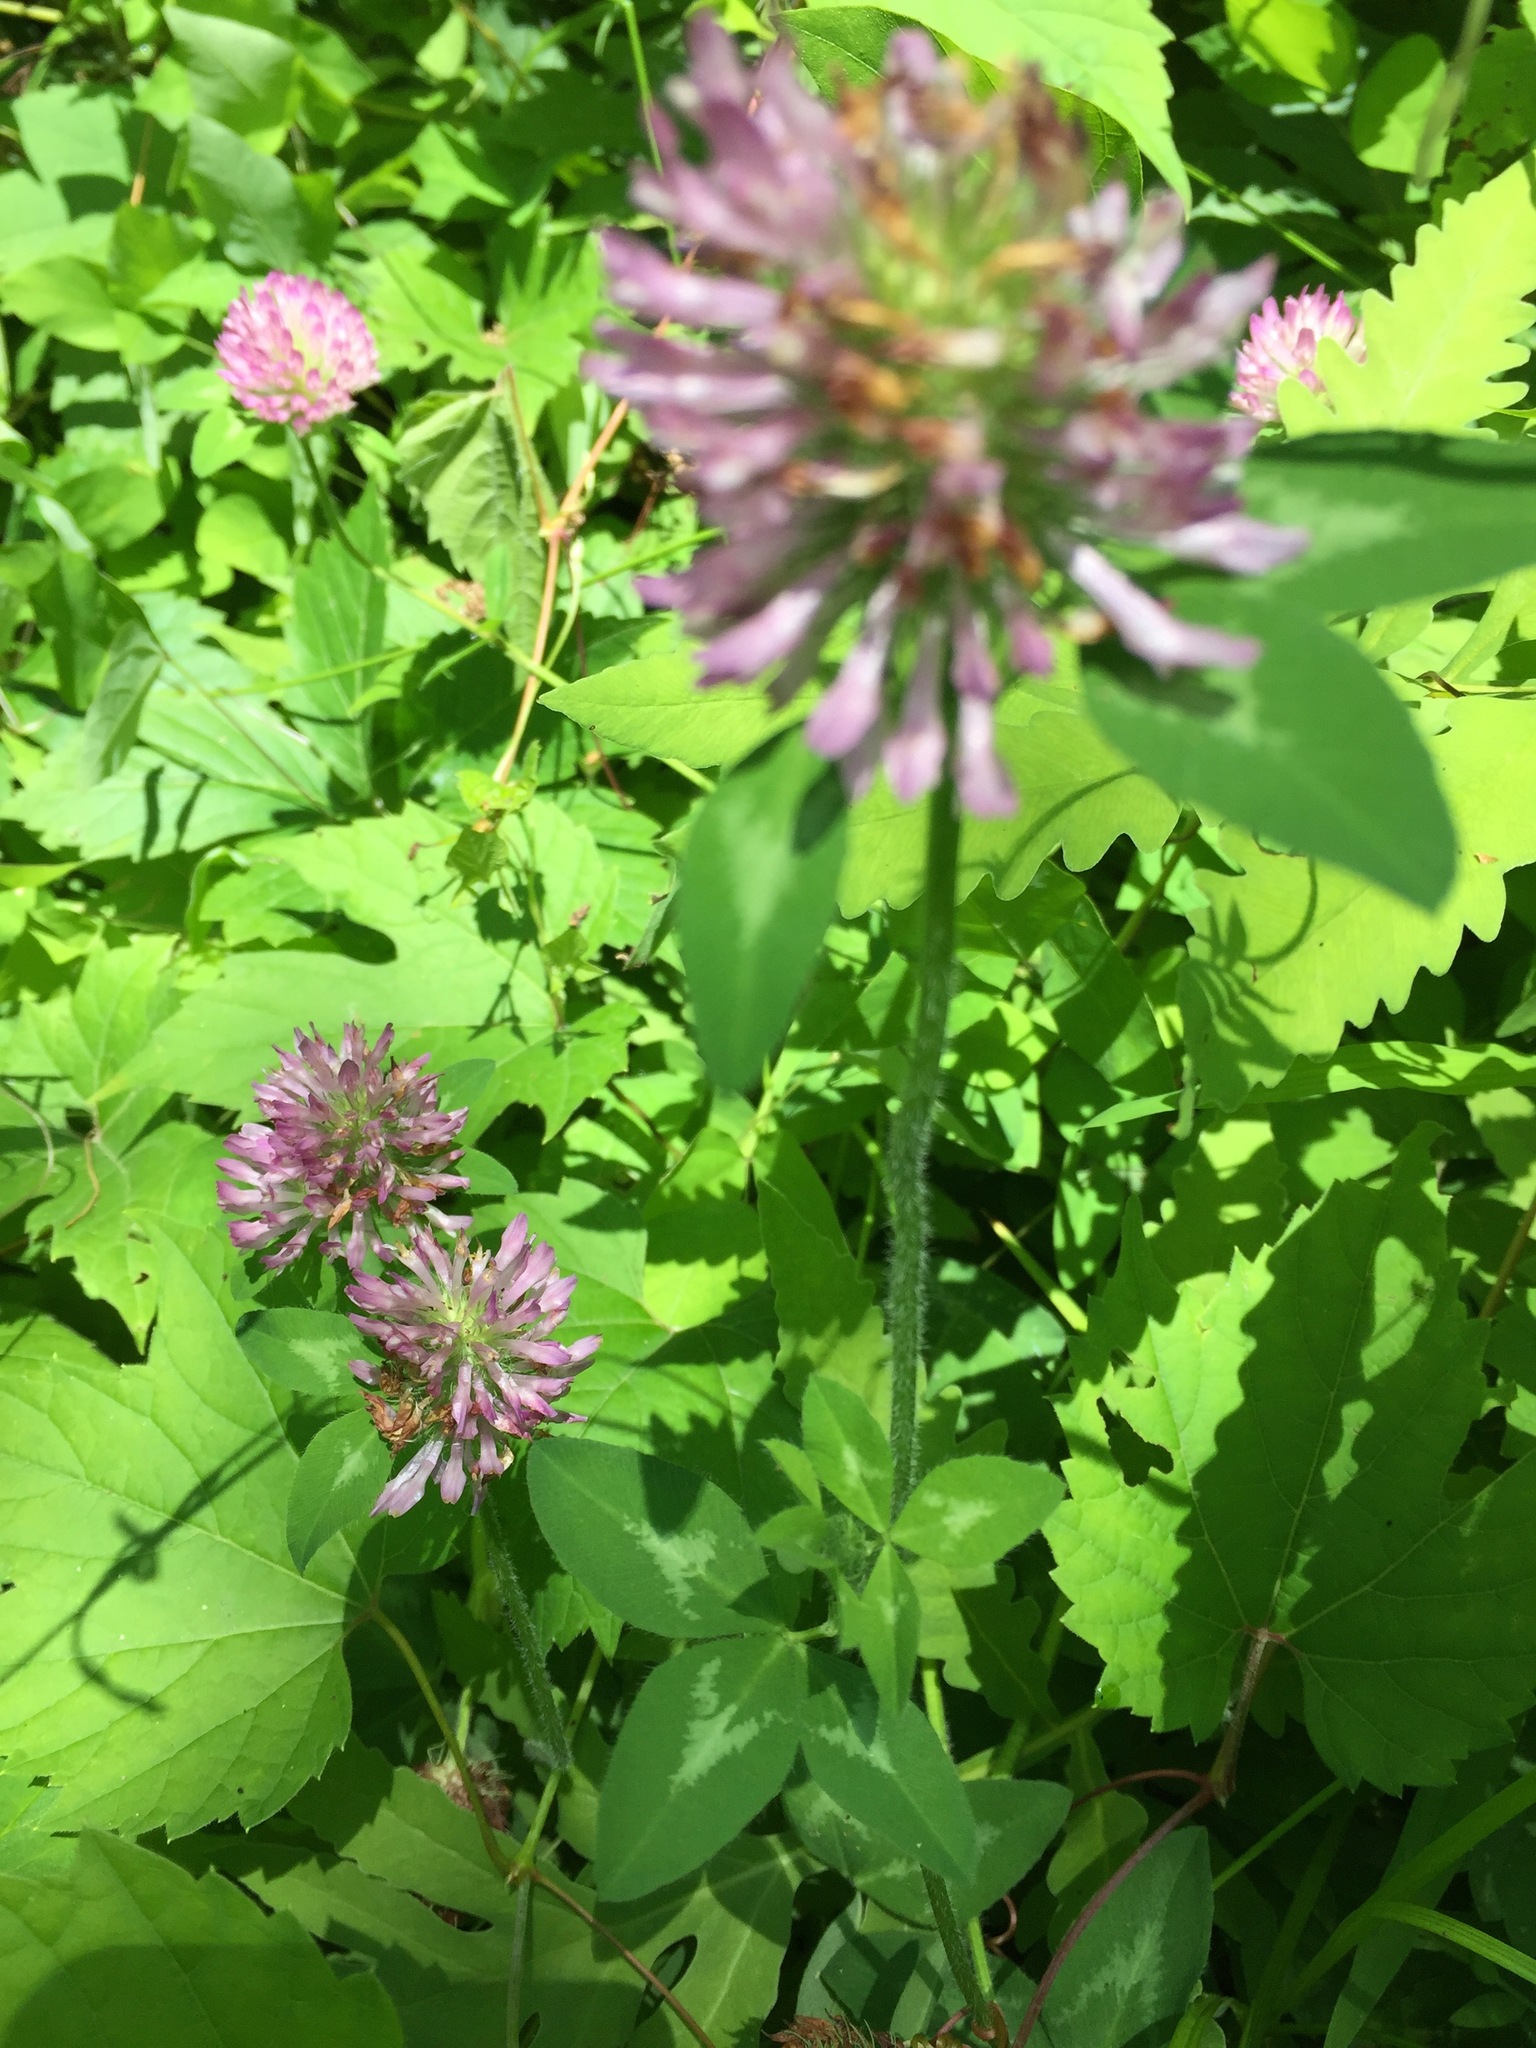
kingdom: Plantae
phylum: Tracheophyta
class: Magnoliopsida
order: Fabales
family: Fabaceae
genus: Trifolium
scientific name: Trifolium pratense
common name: Red clover
